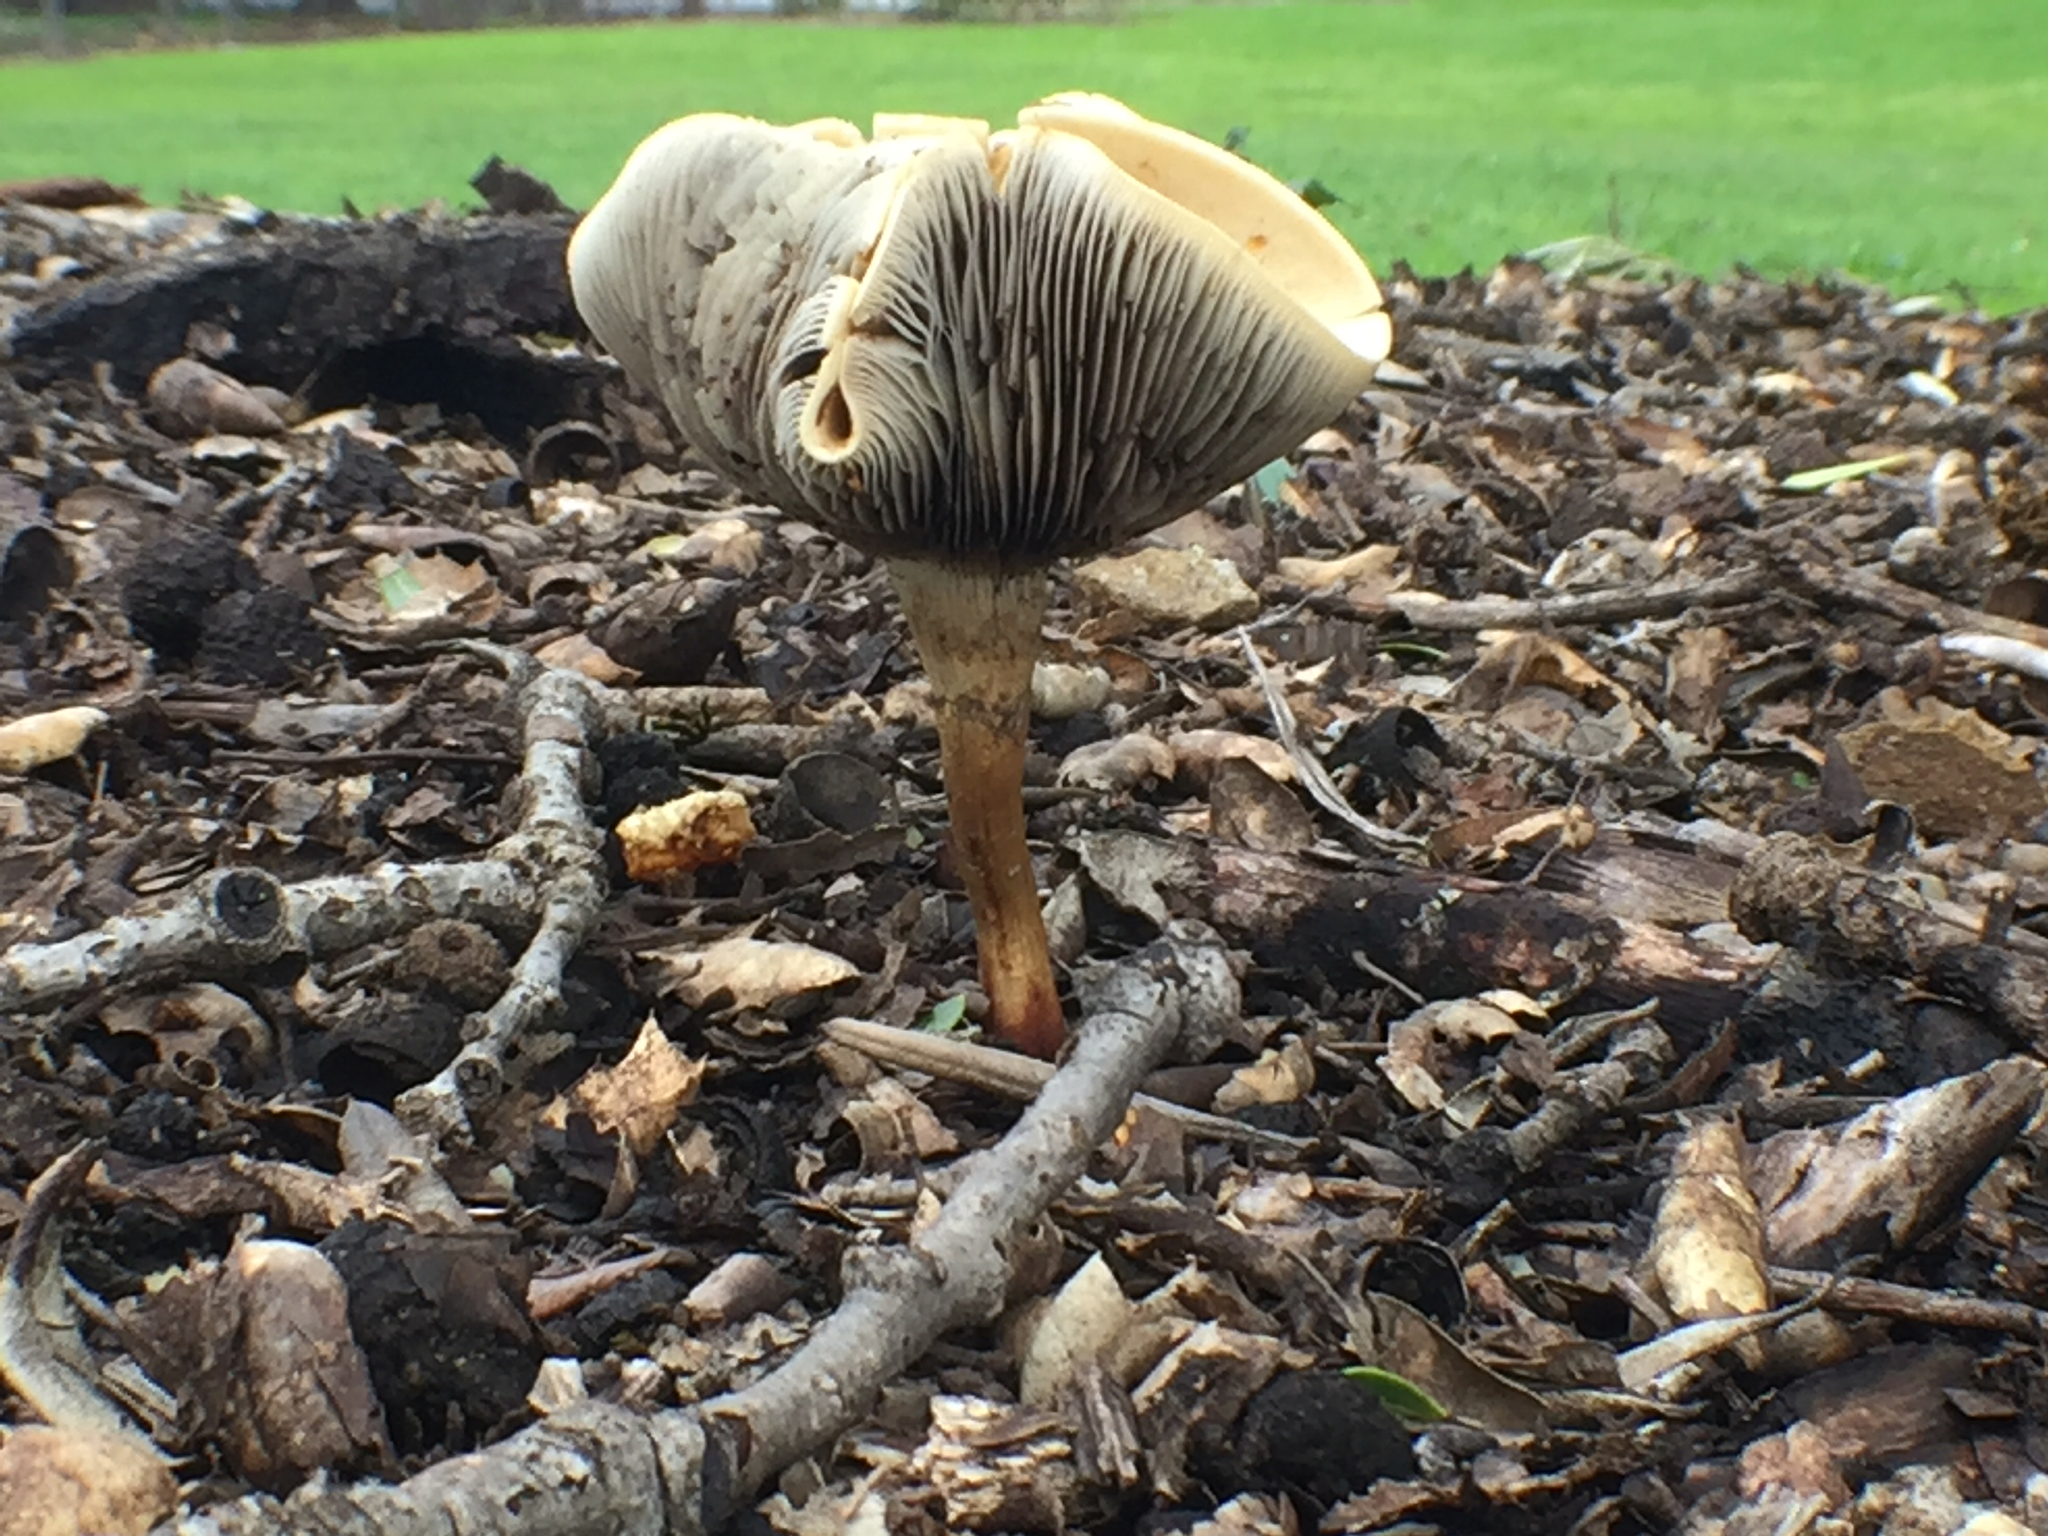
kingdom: Fungi
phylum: Basidiomycota
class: Agaricomycetes
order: Agaricales
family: Strophariaceae
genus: Leratiomyces
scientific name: Leratiomyces percevalii
